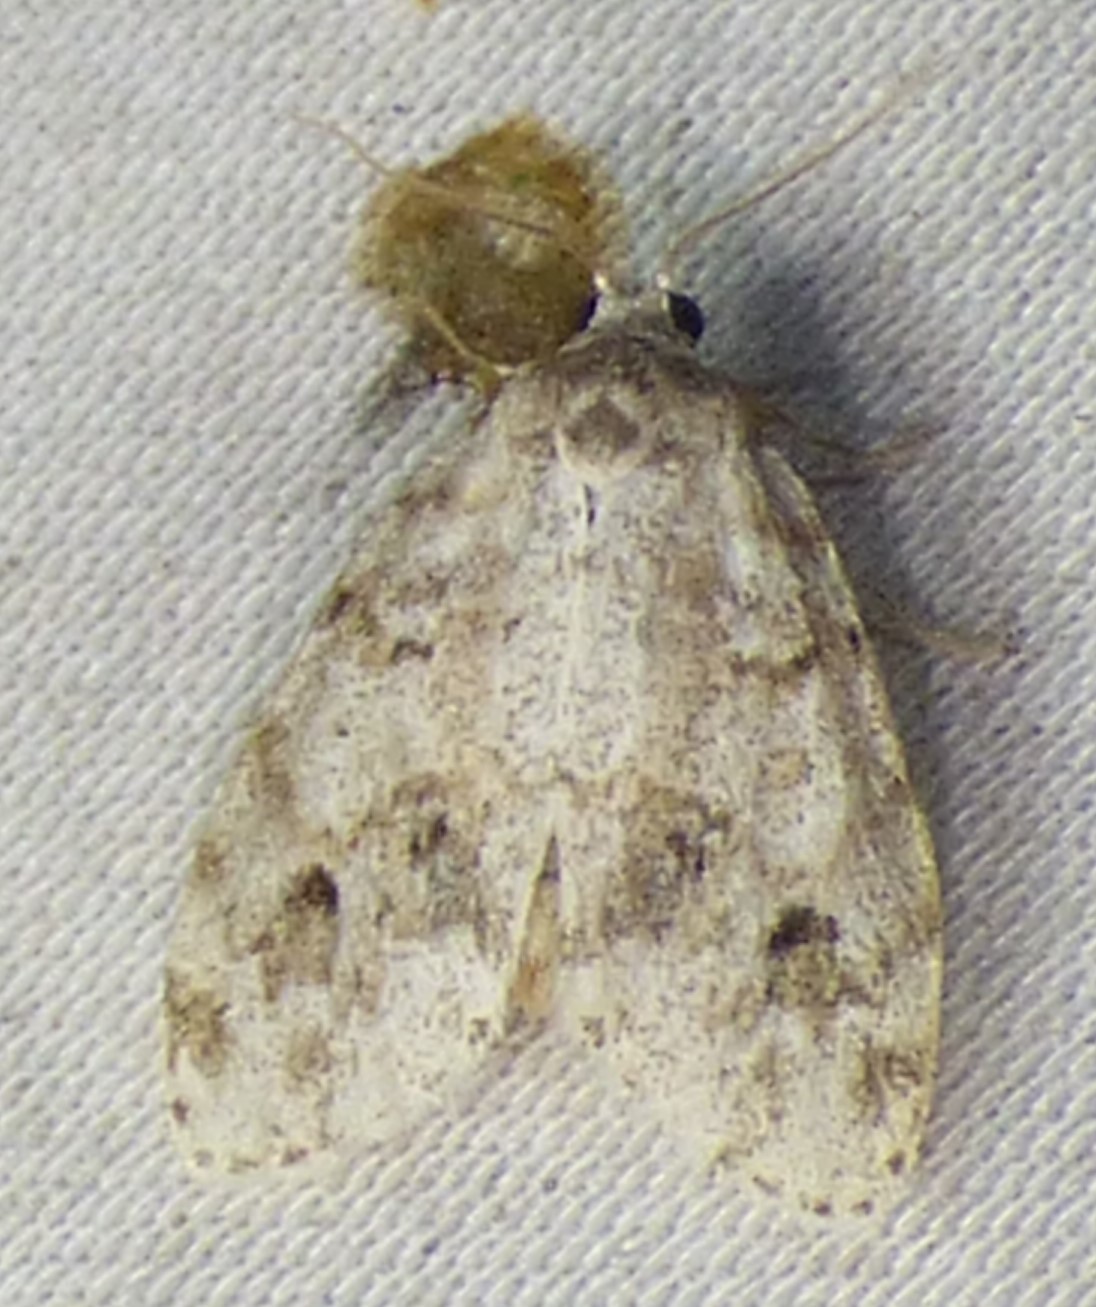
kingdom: Animalia
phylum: Arthropoda
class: Insecta
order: Lepidoptera
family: Erebidae
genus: Clemensia
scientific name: Clemensia albata
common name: Little white lichen moth
